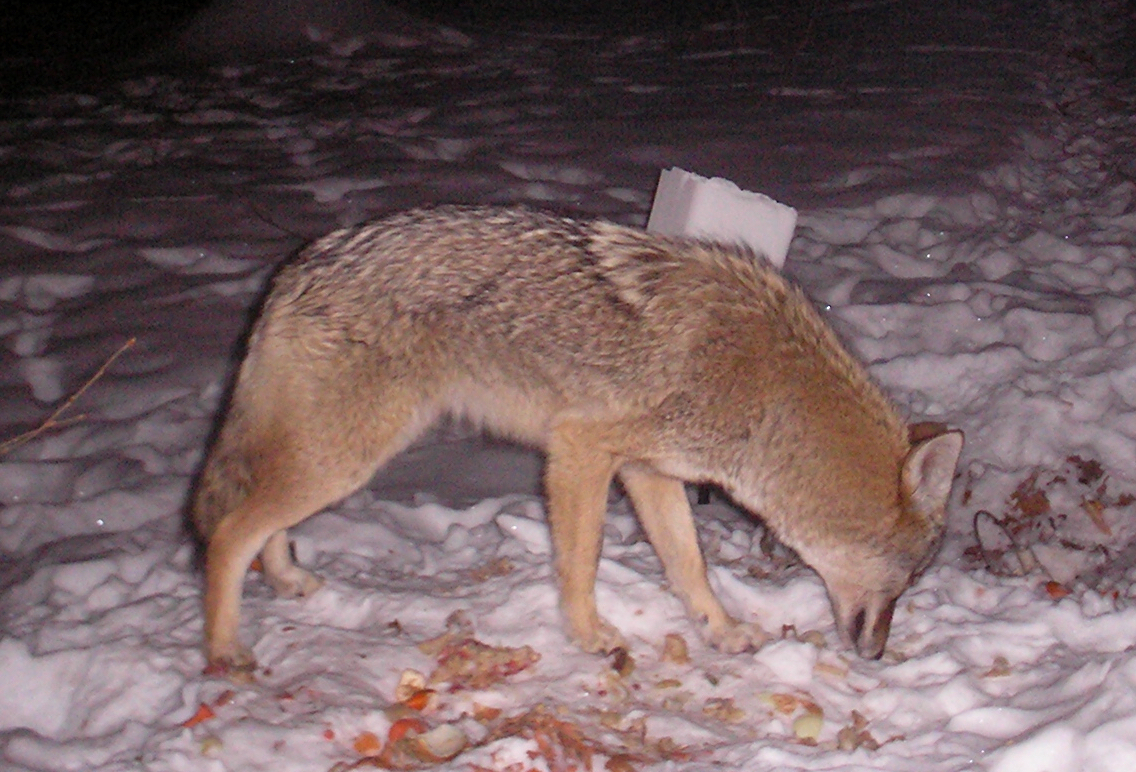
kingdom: Animalia
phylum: Chordata
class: Mammalia
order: Carnivora
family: Canidae
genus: Canis
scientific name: Canis latrans
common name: Coyote
